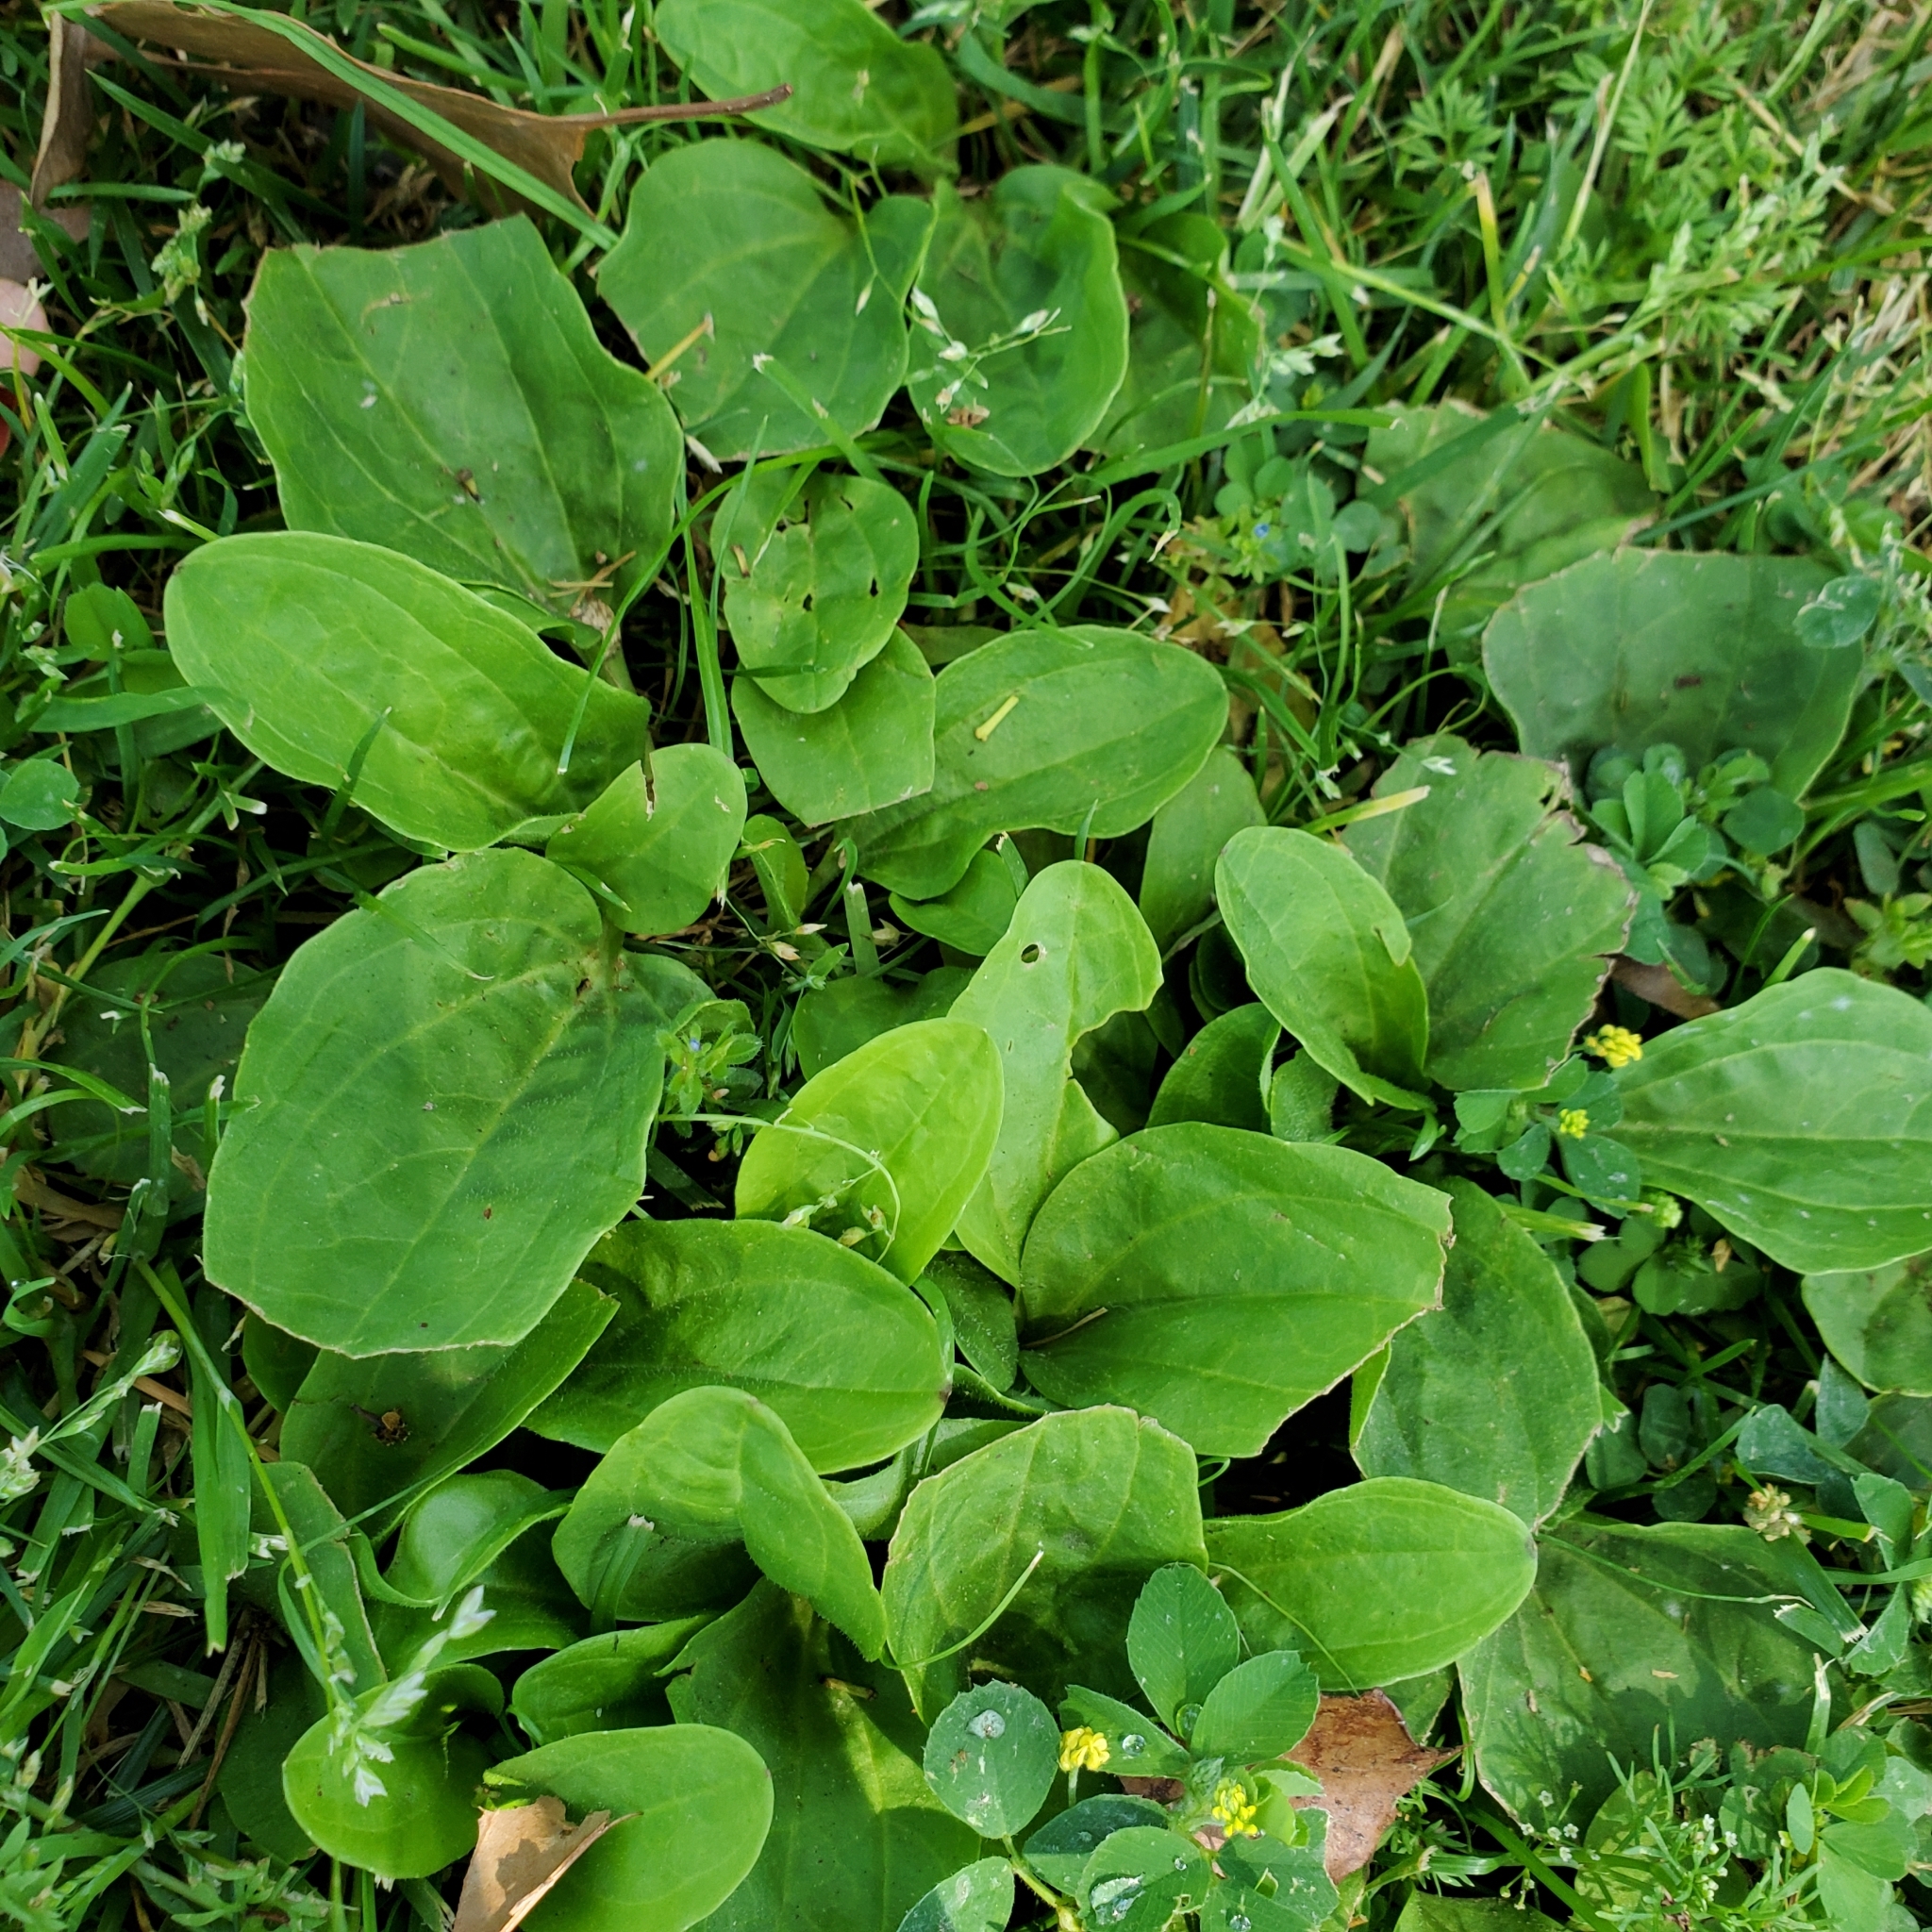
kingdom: Plantae
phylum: Tracheophyta
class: Magnoliopsida
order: Lamiales
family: Plantaginaceae
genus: Plantago
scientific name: Plantago major
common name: Common plantain
